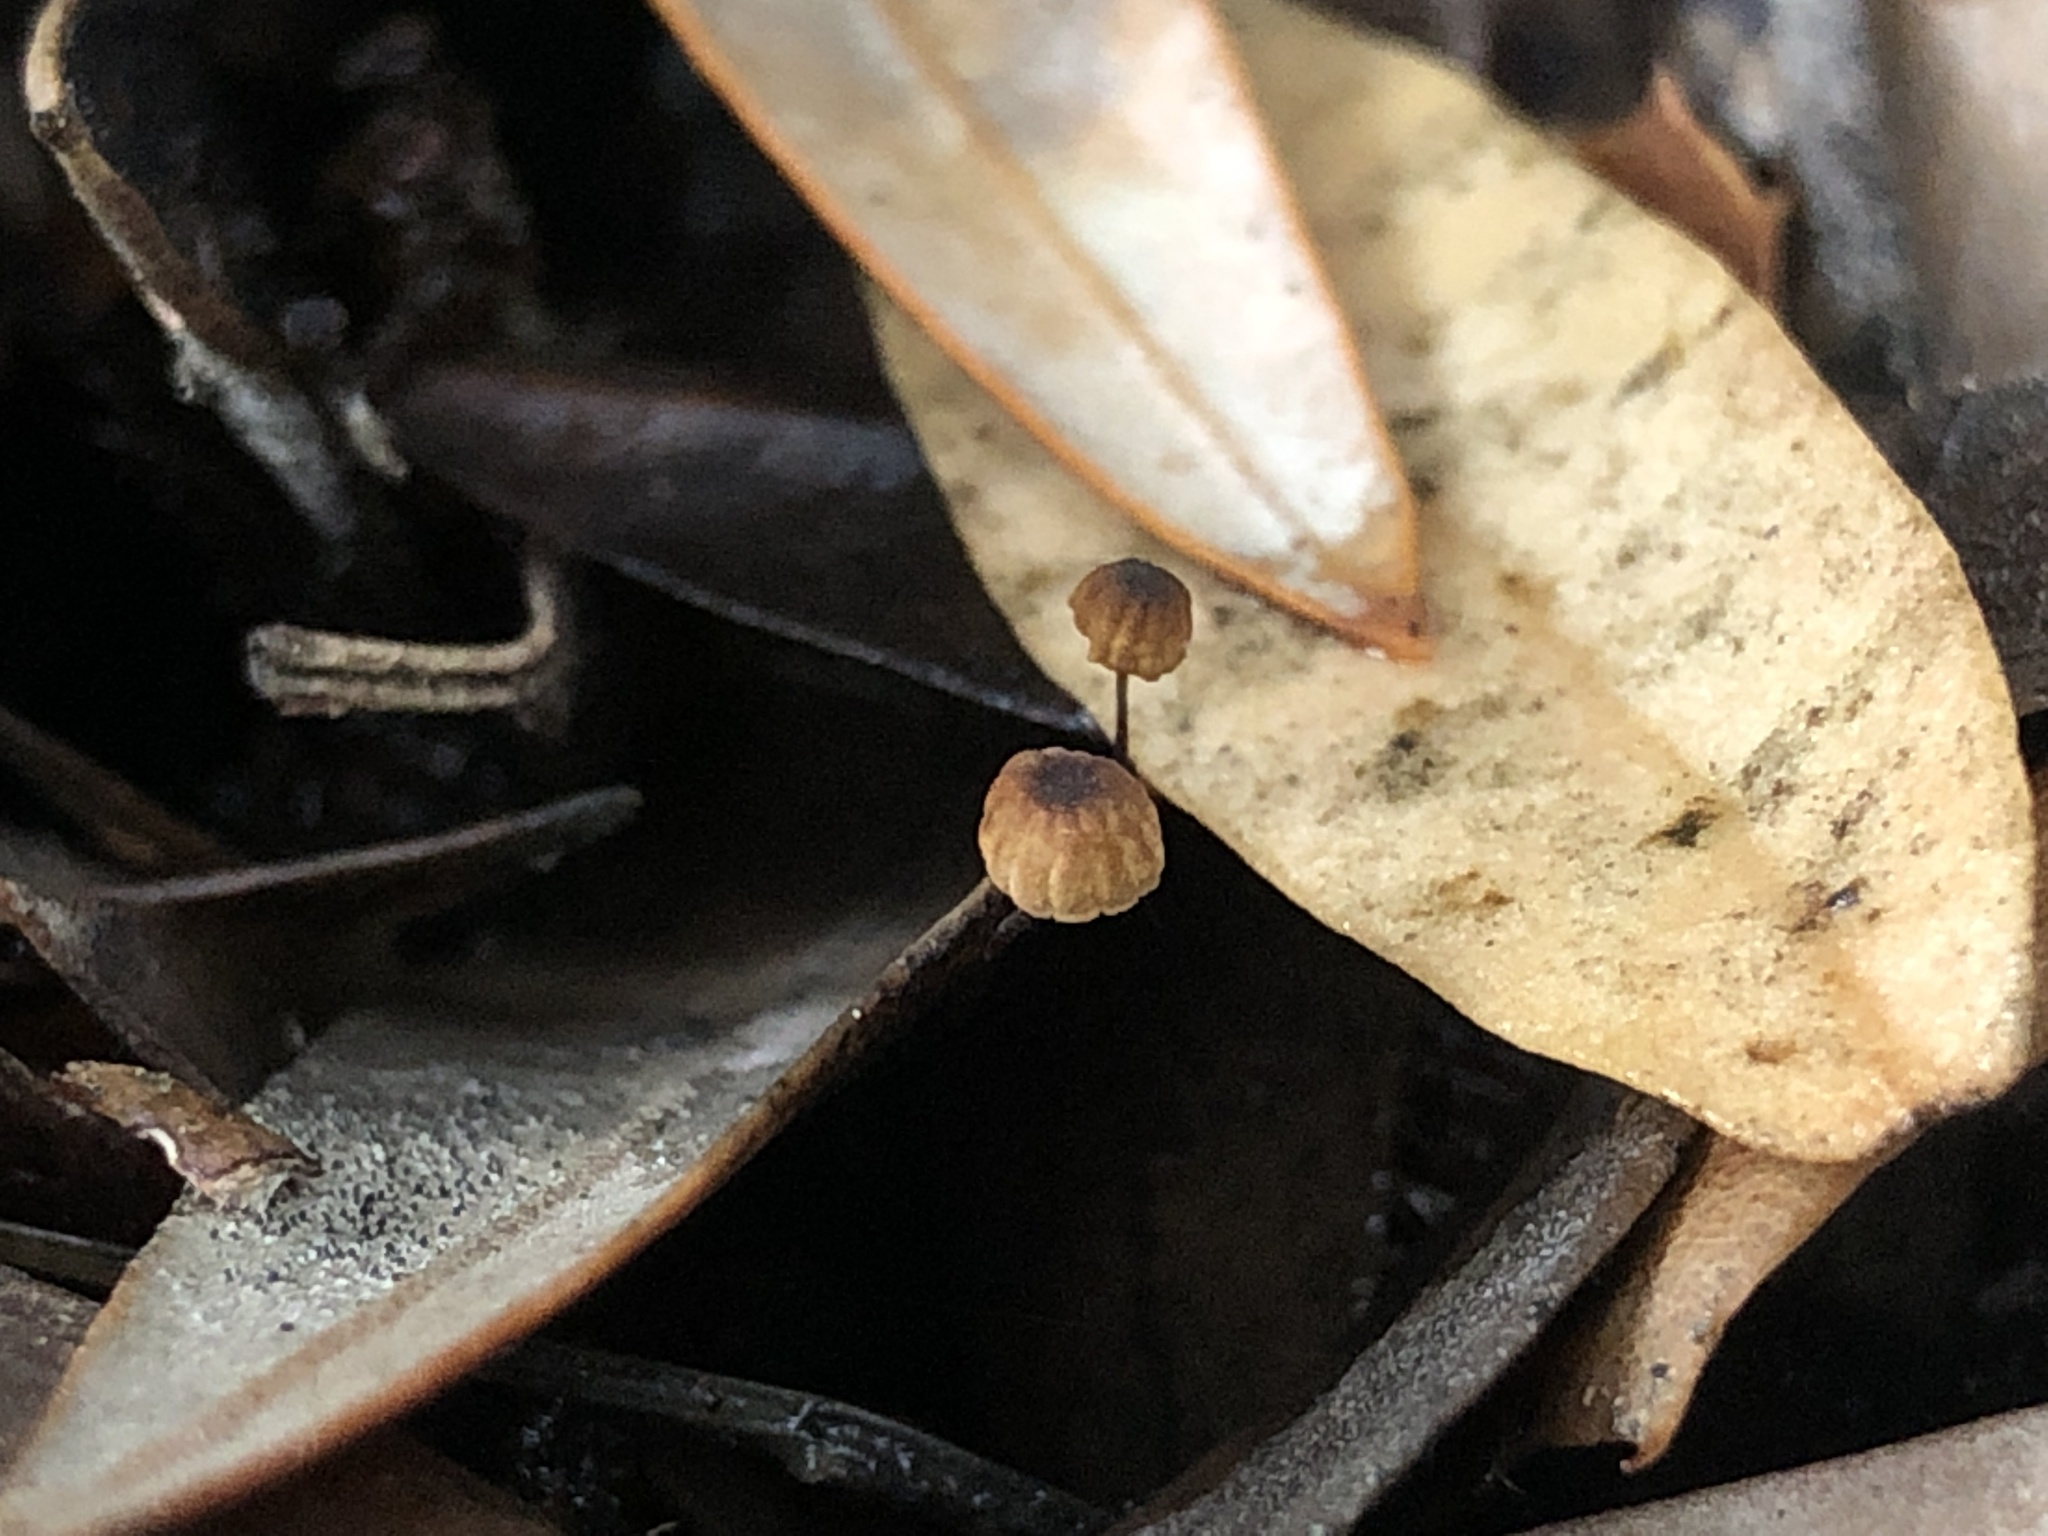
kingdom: Fungi
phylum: Basidiomycota
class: Agaricomycetes
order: Agaricales
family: Physalacriaceae
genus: Cryptomarasmius
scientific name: Cryptomarasmius corbariensis
